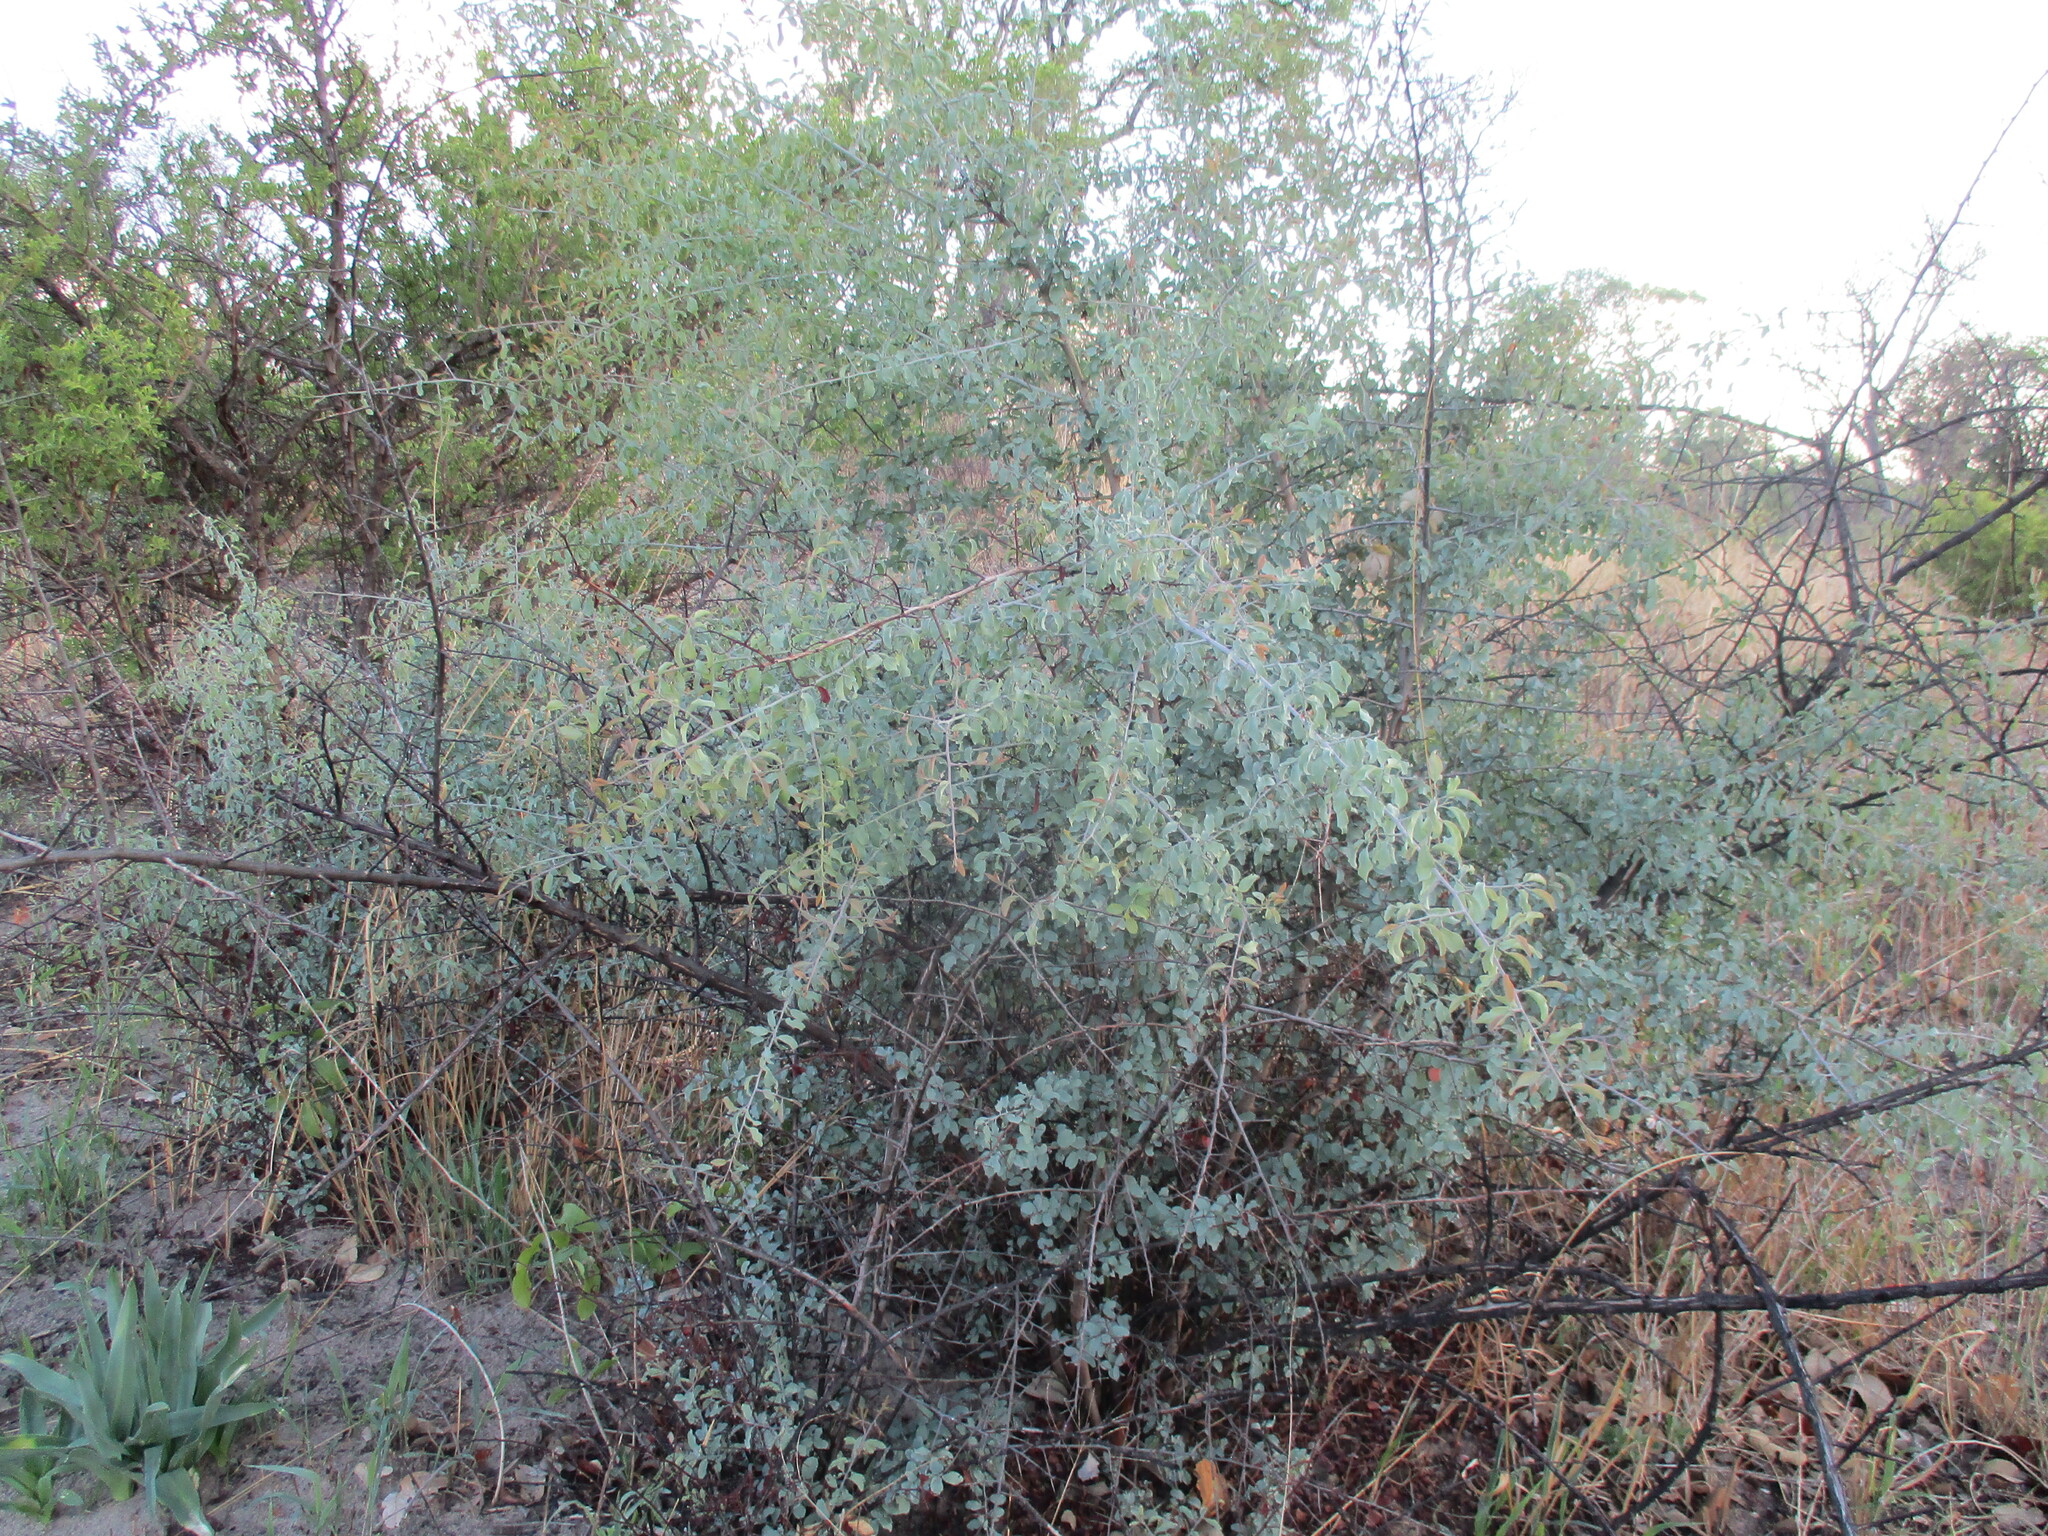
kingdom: Plantae
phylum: Tracheophyta
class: Magnoliopsida
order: Santalales
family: Ximeniaceae
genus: Ximenia
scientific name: Ximenia americana
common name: Tallowwood
